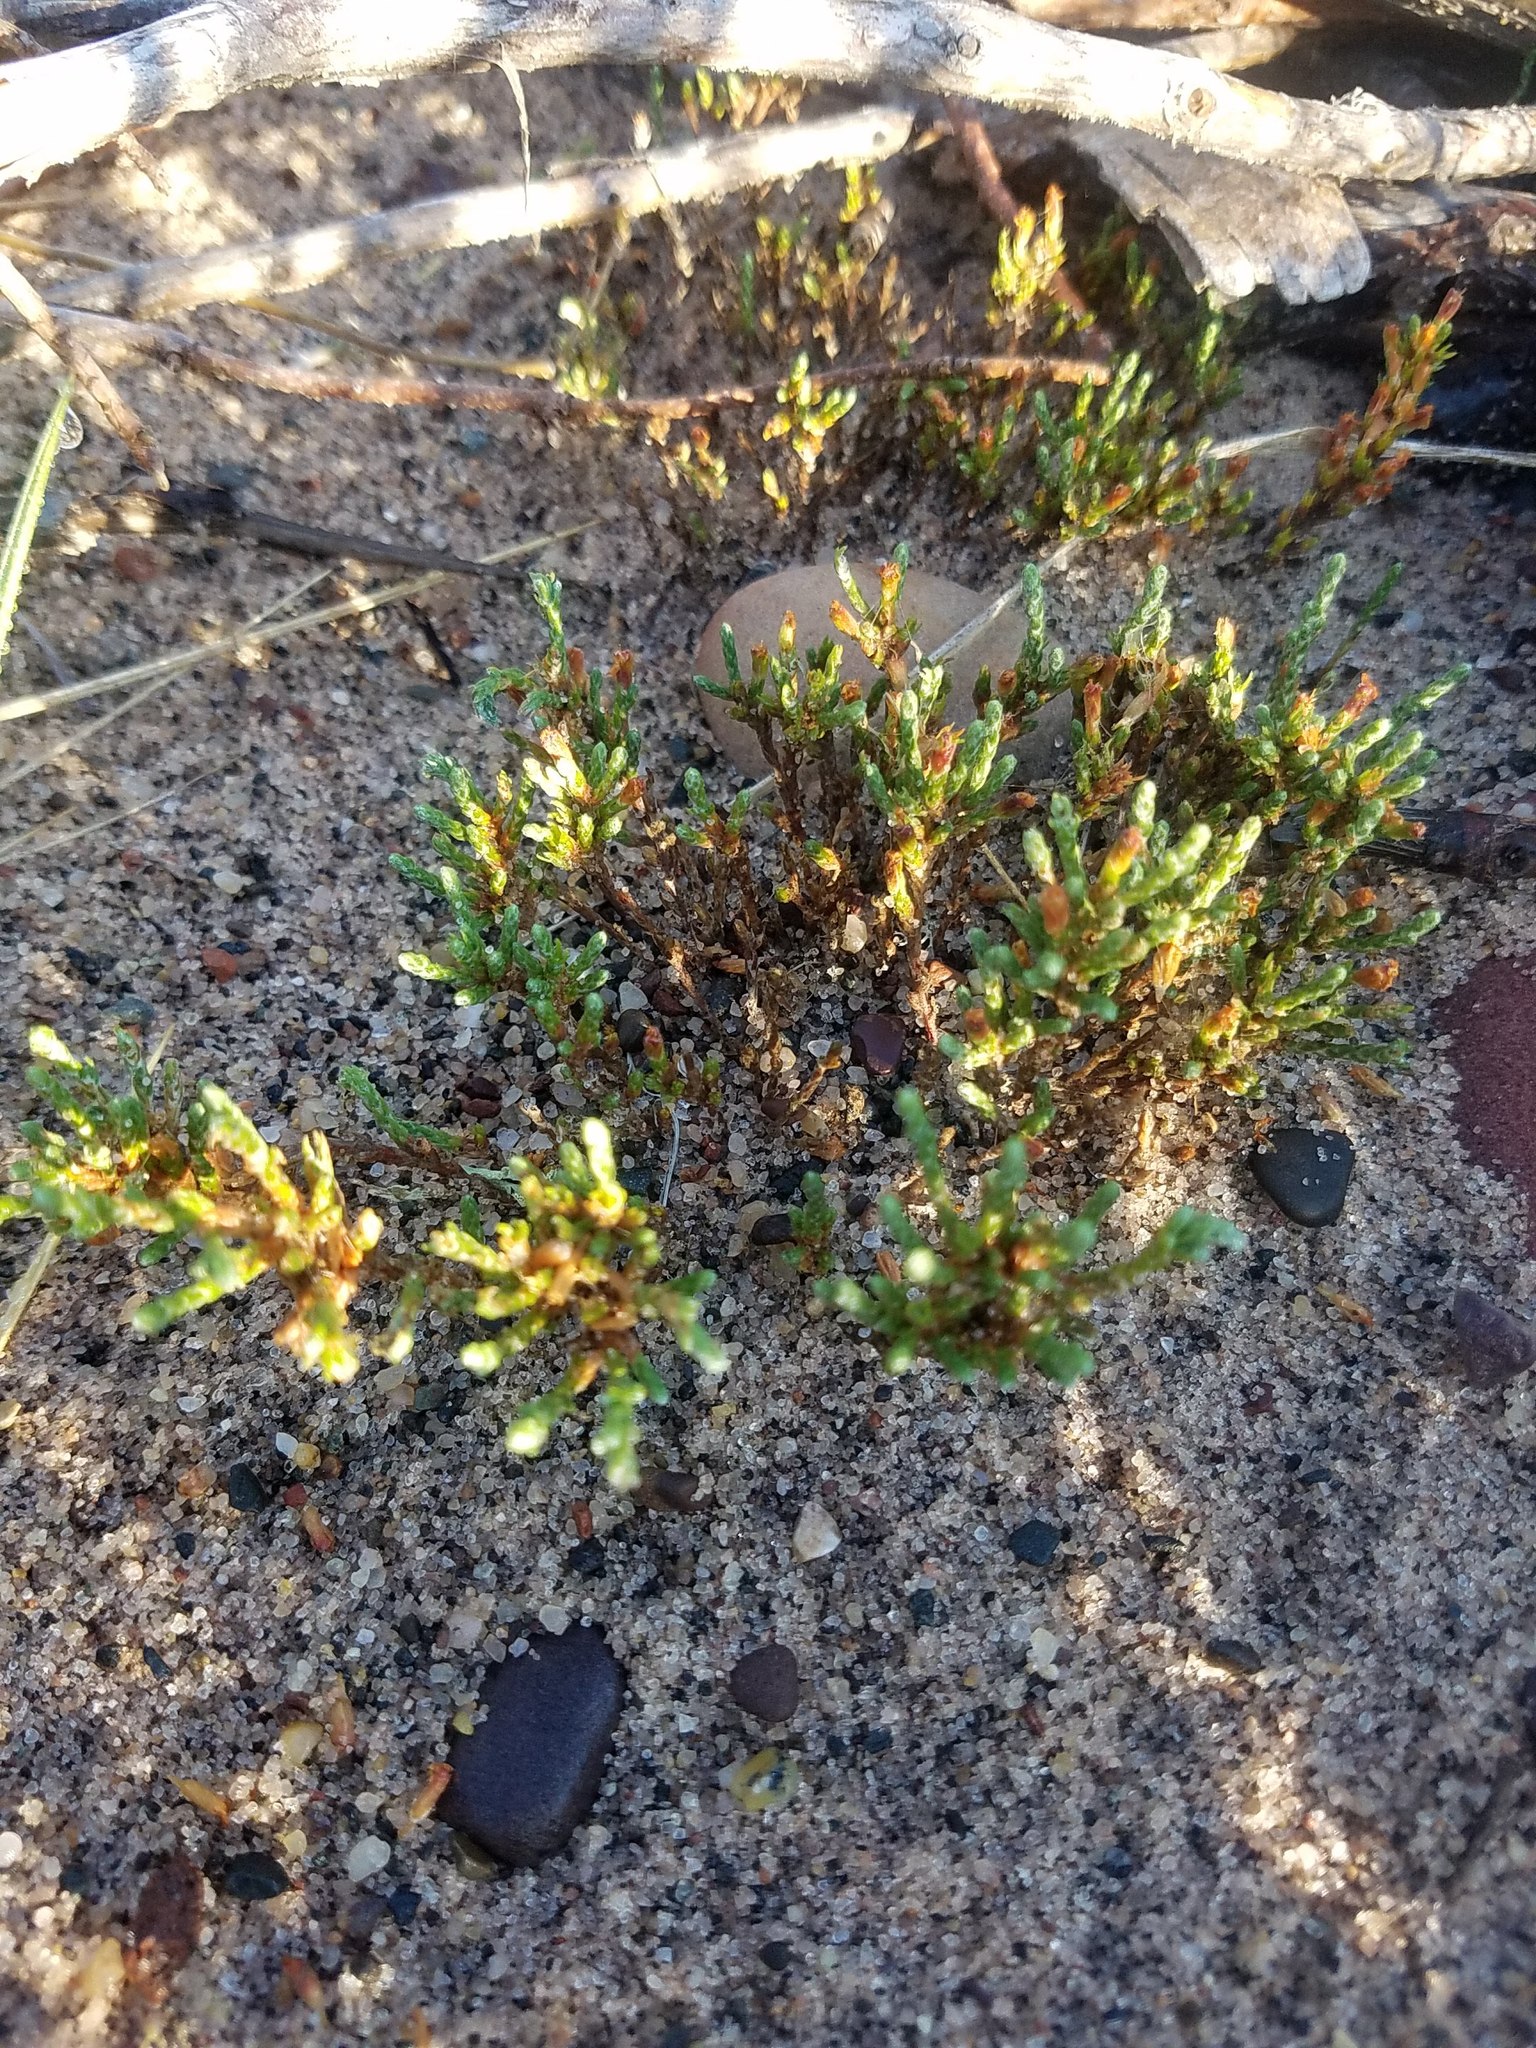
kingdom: Plantae
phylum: Tracheophyta
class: Magnoliopsida
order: Malvales
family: Cistaceae
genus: Hudsonia
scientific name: Hudsonia tomentosa
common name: Beach-heath
